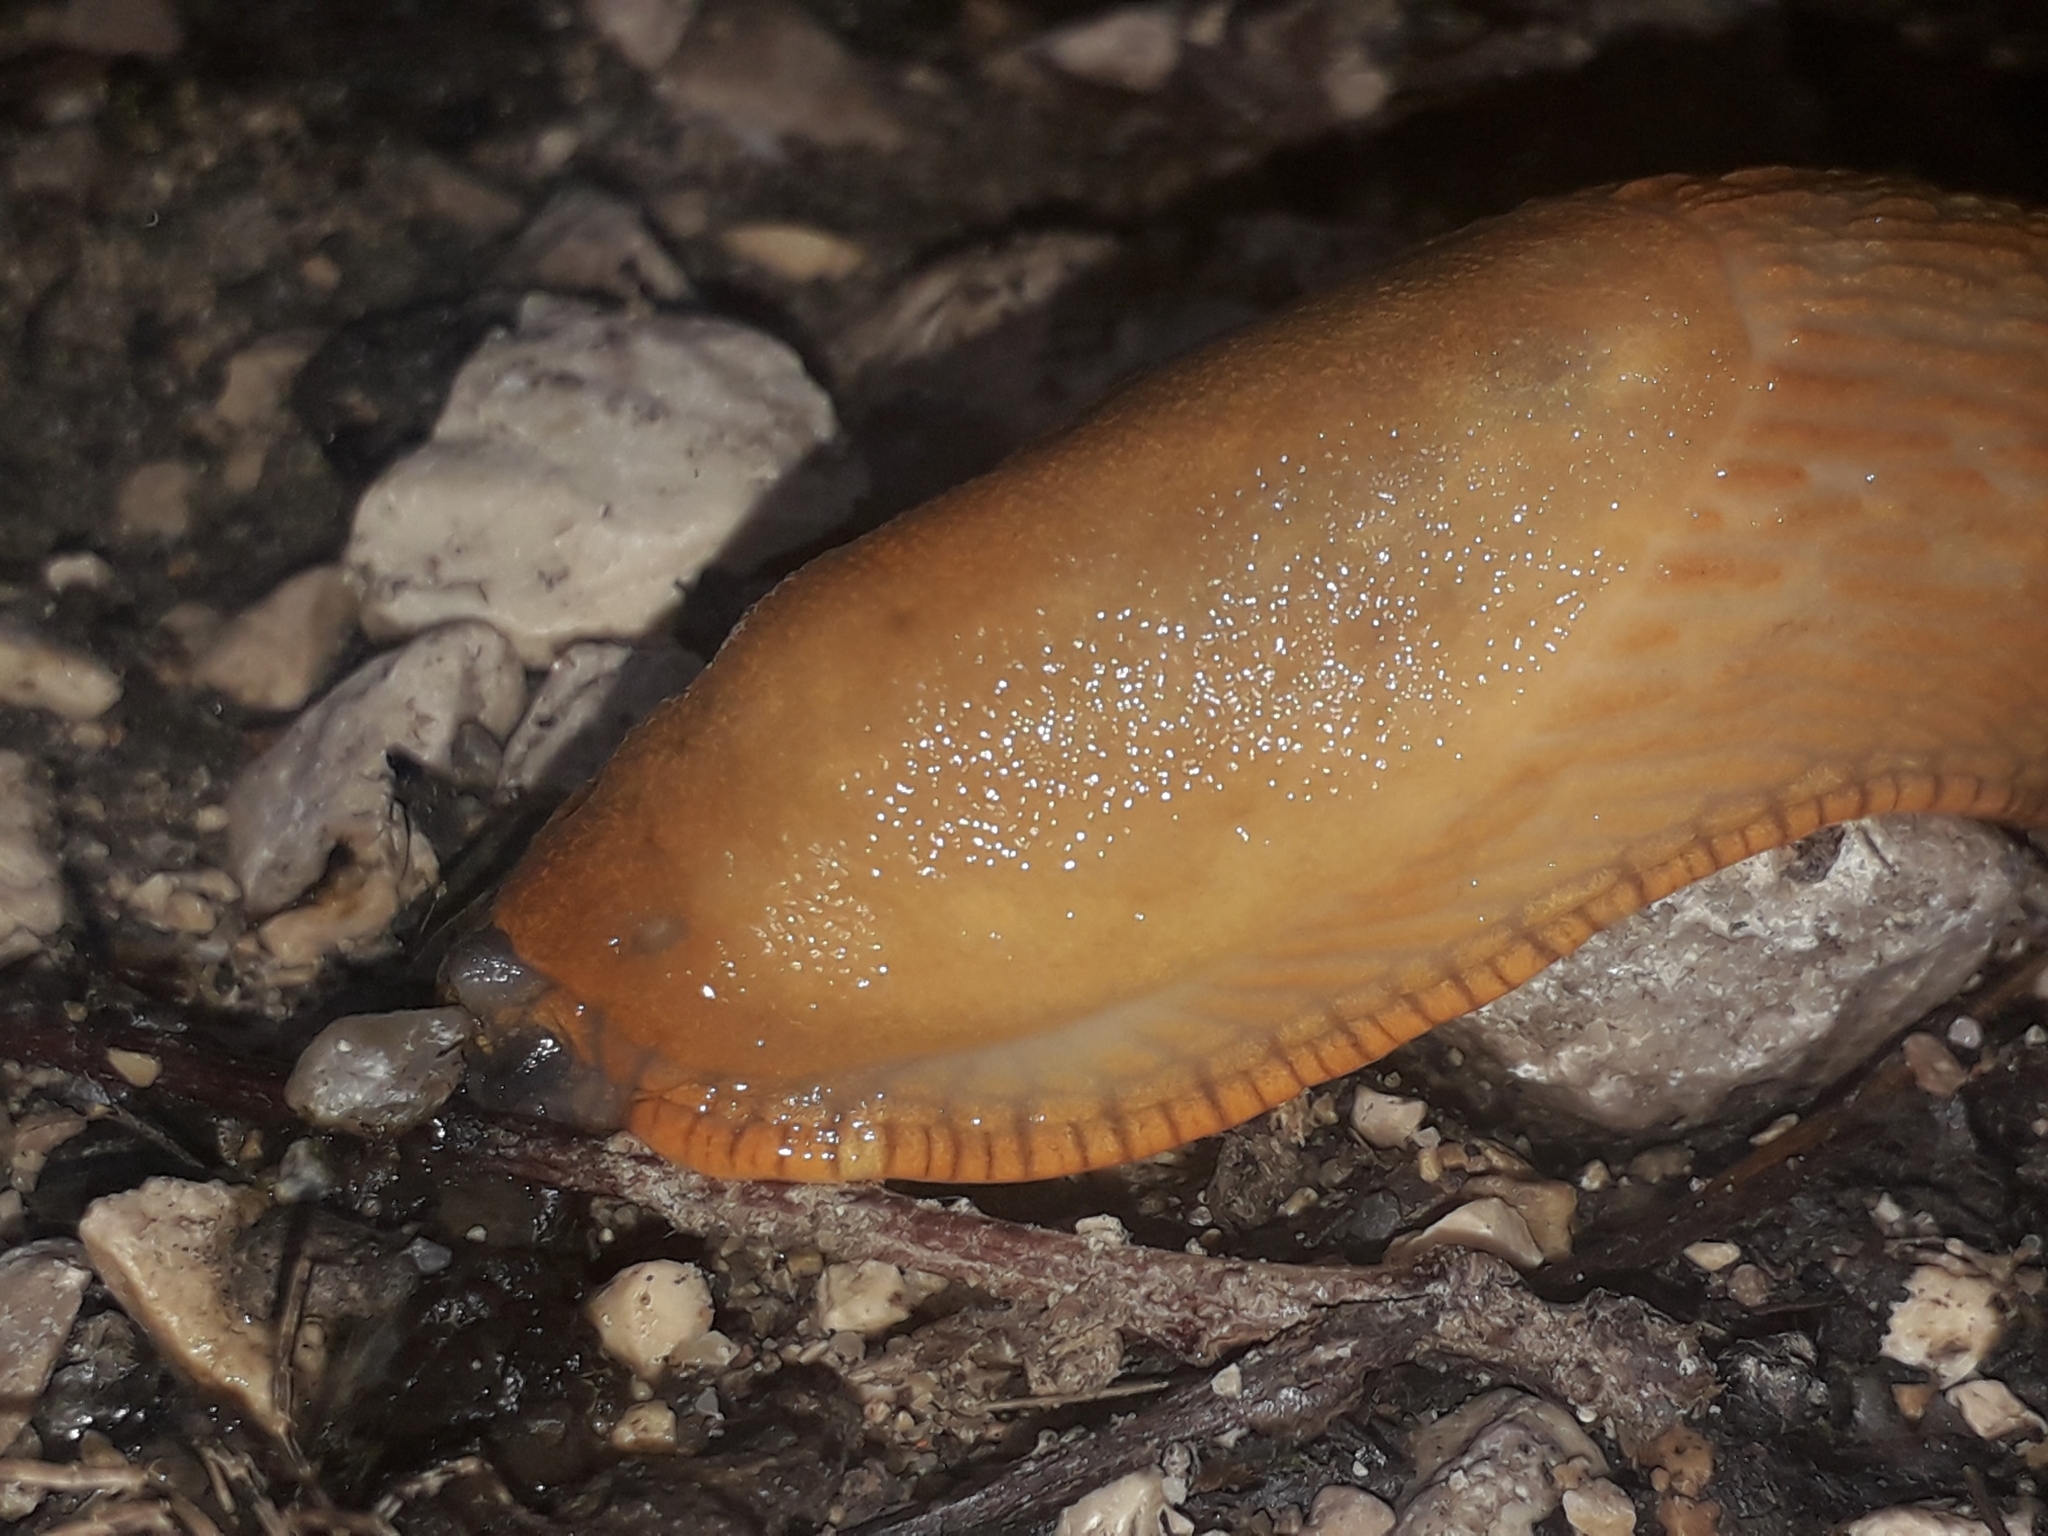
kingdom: Animalia
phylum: Mollusca
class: Gastropoda
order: Stylommatophora
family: Arionidae
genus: Arion
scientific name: Arion
